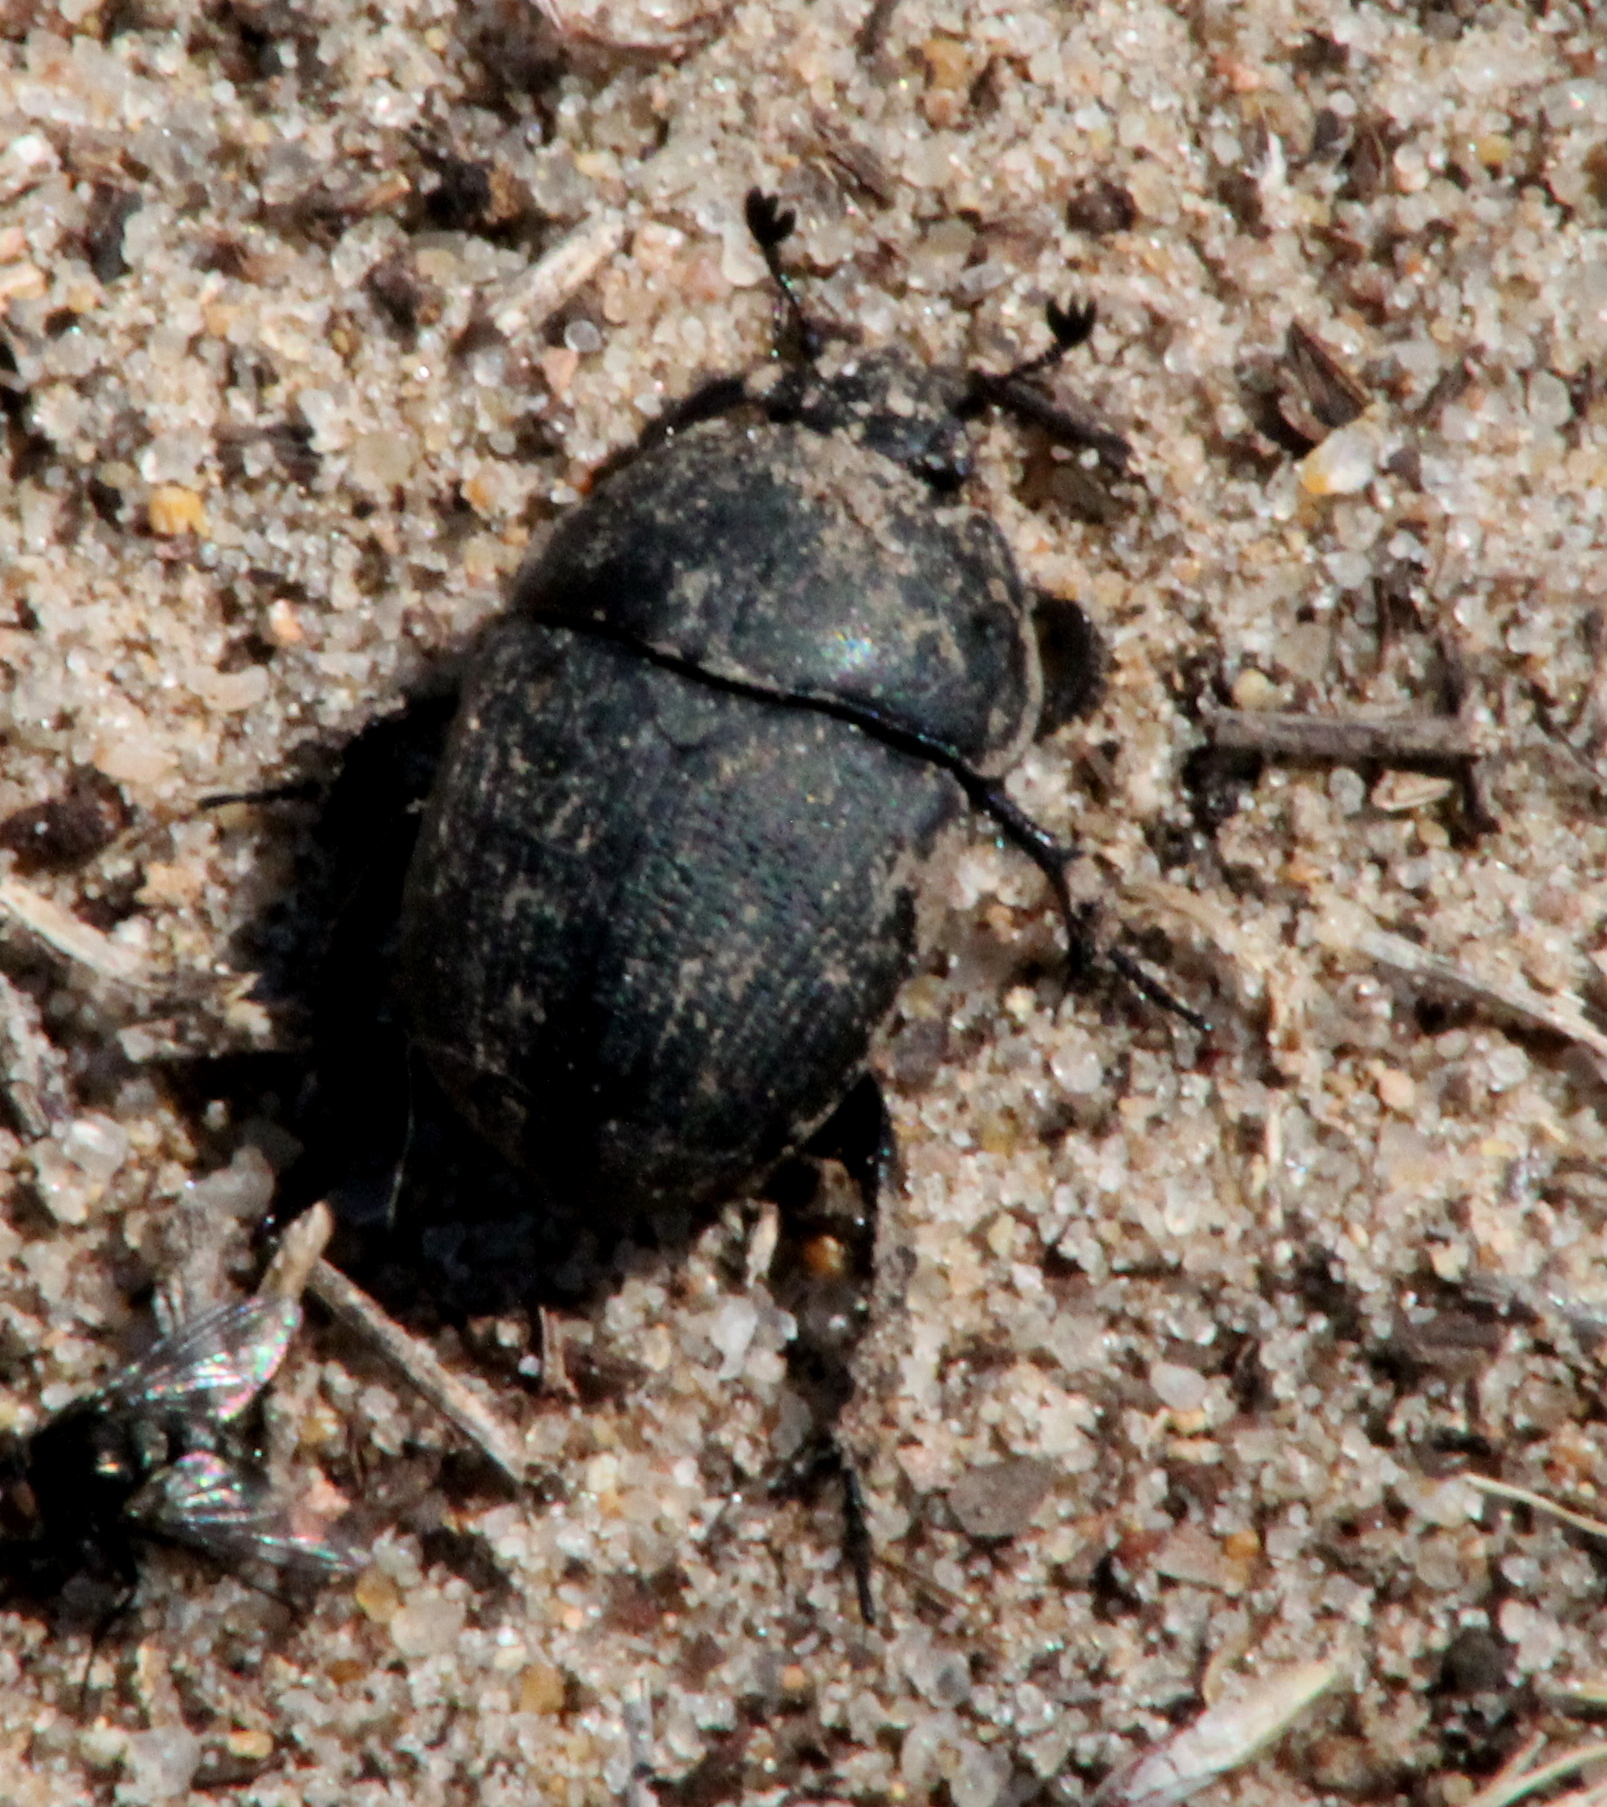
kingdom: Animalia
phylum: Arthropoda
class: Insecta
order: Coleoptera
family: Geotrupidae
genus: Geohowdenius
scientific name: Geohowdenius opacus
